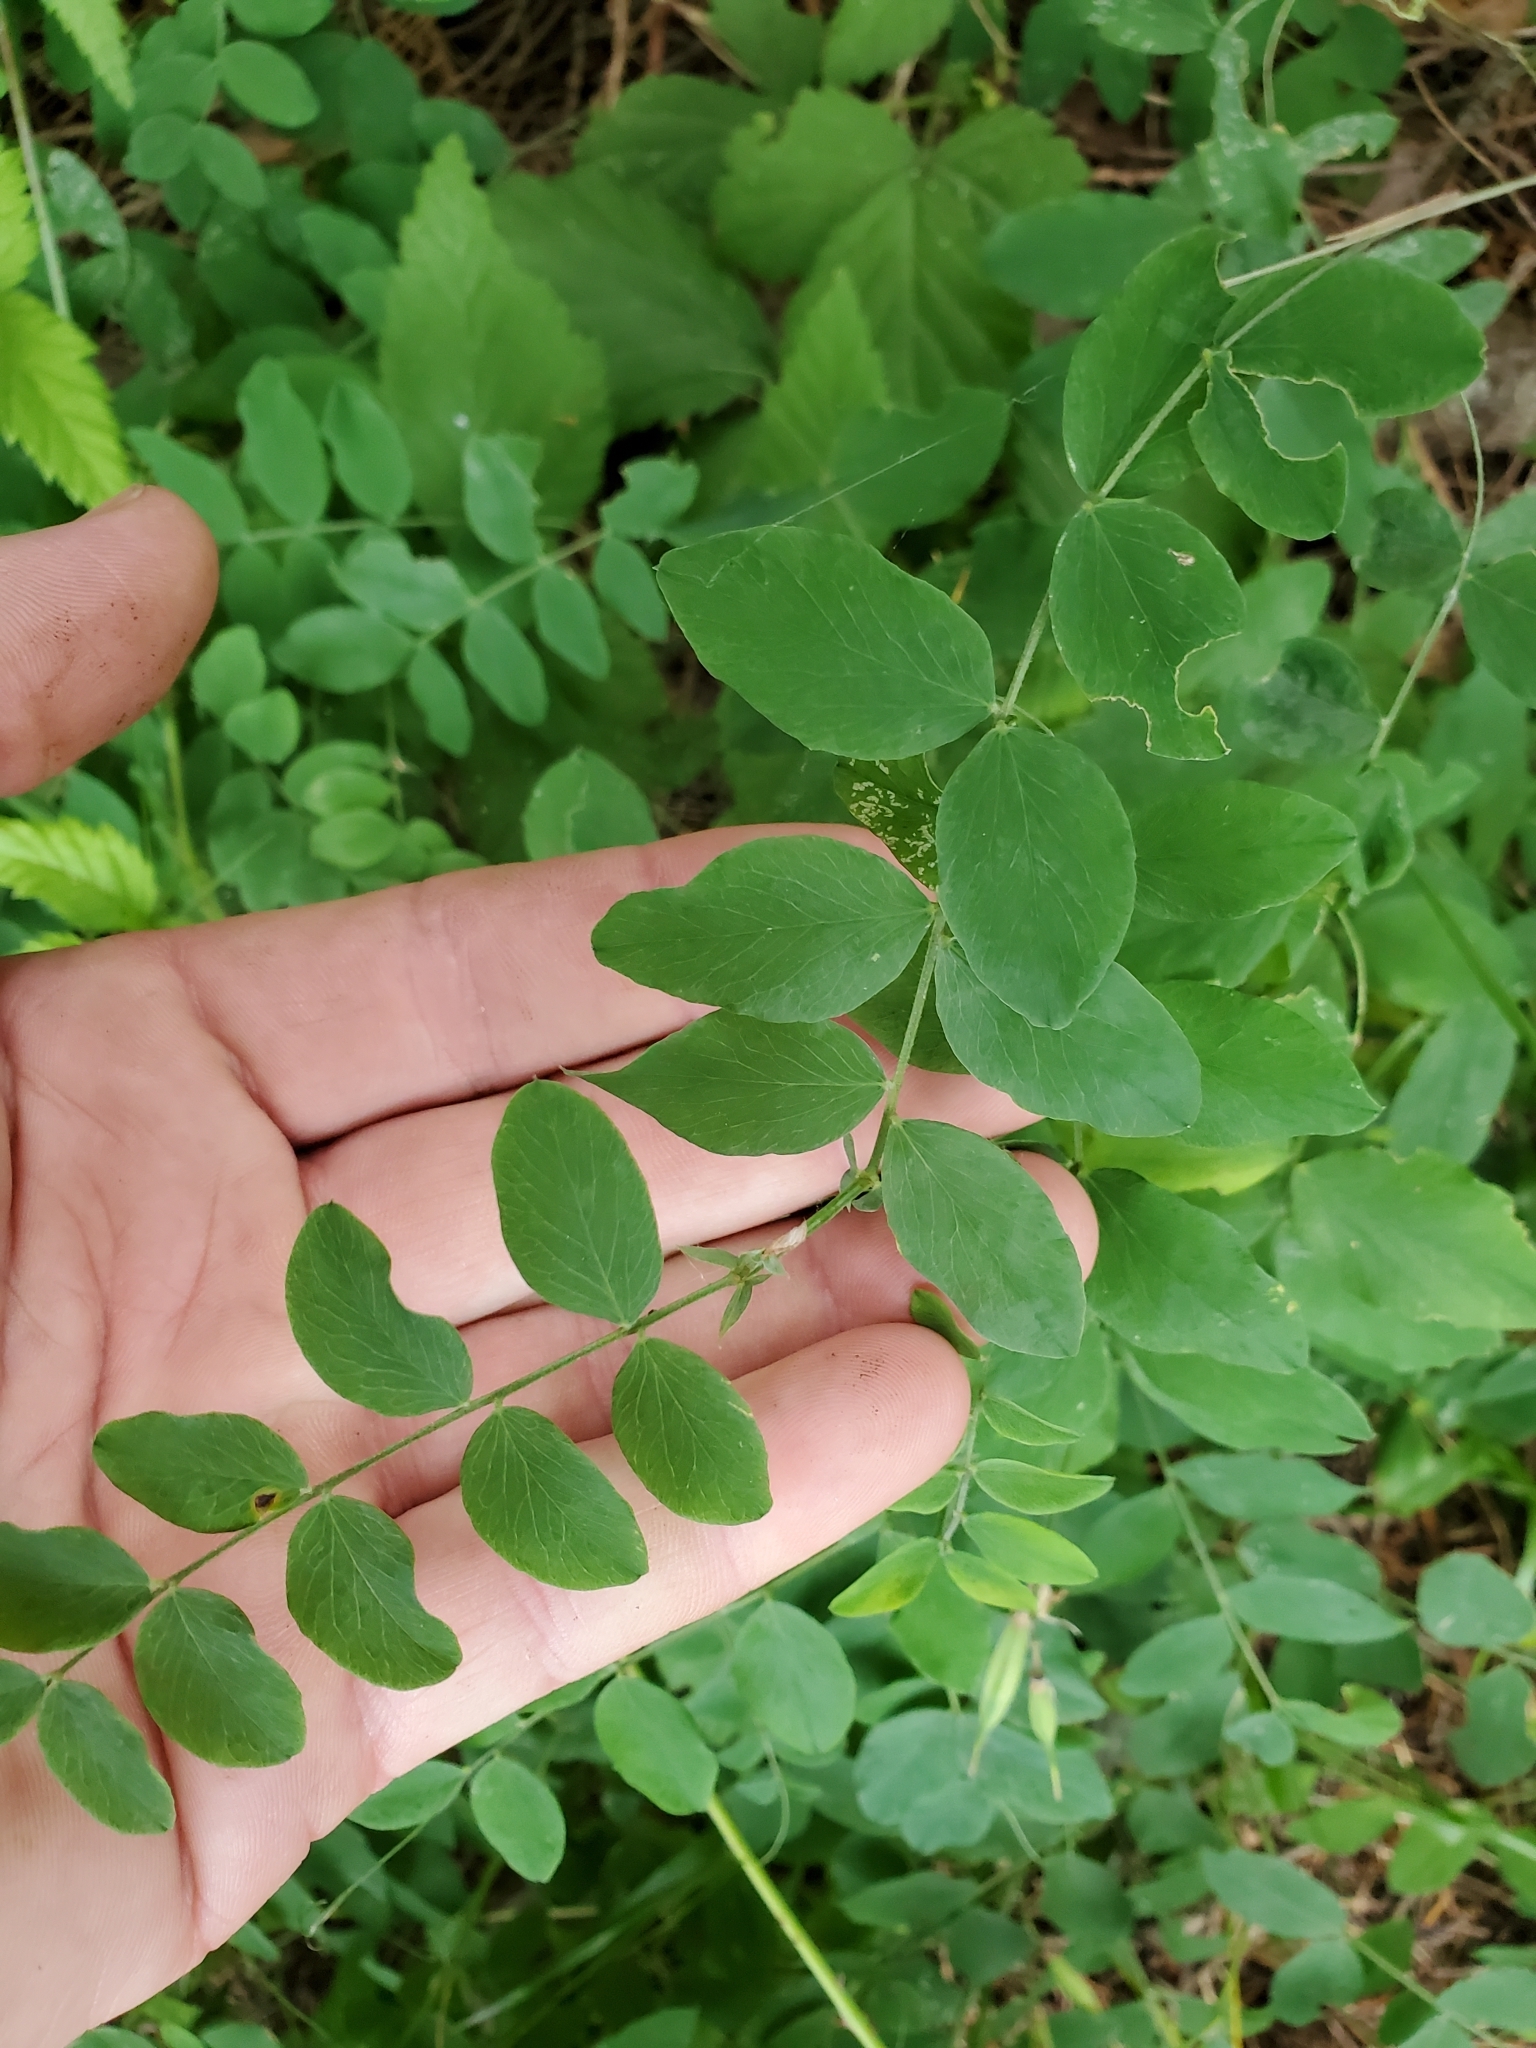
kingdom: Plantae
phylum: Tracheophyta
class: Magnoliopsida
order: Fabales
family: Fabaceae
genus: Lathyrus
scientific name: Lathyrus nevadensis
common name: Sierra nevada peavine
